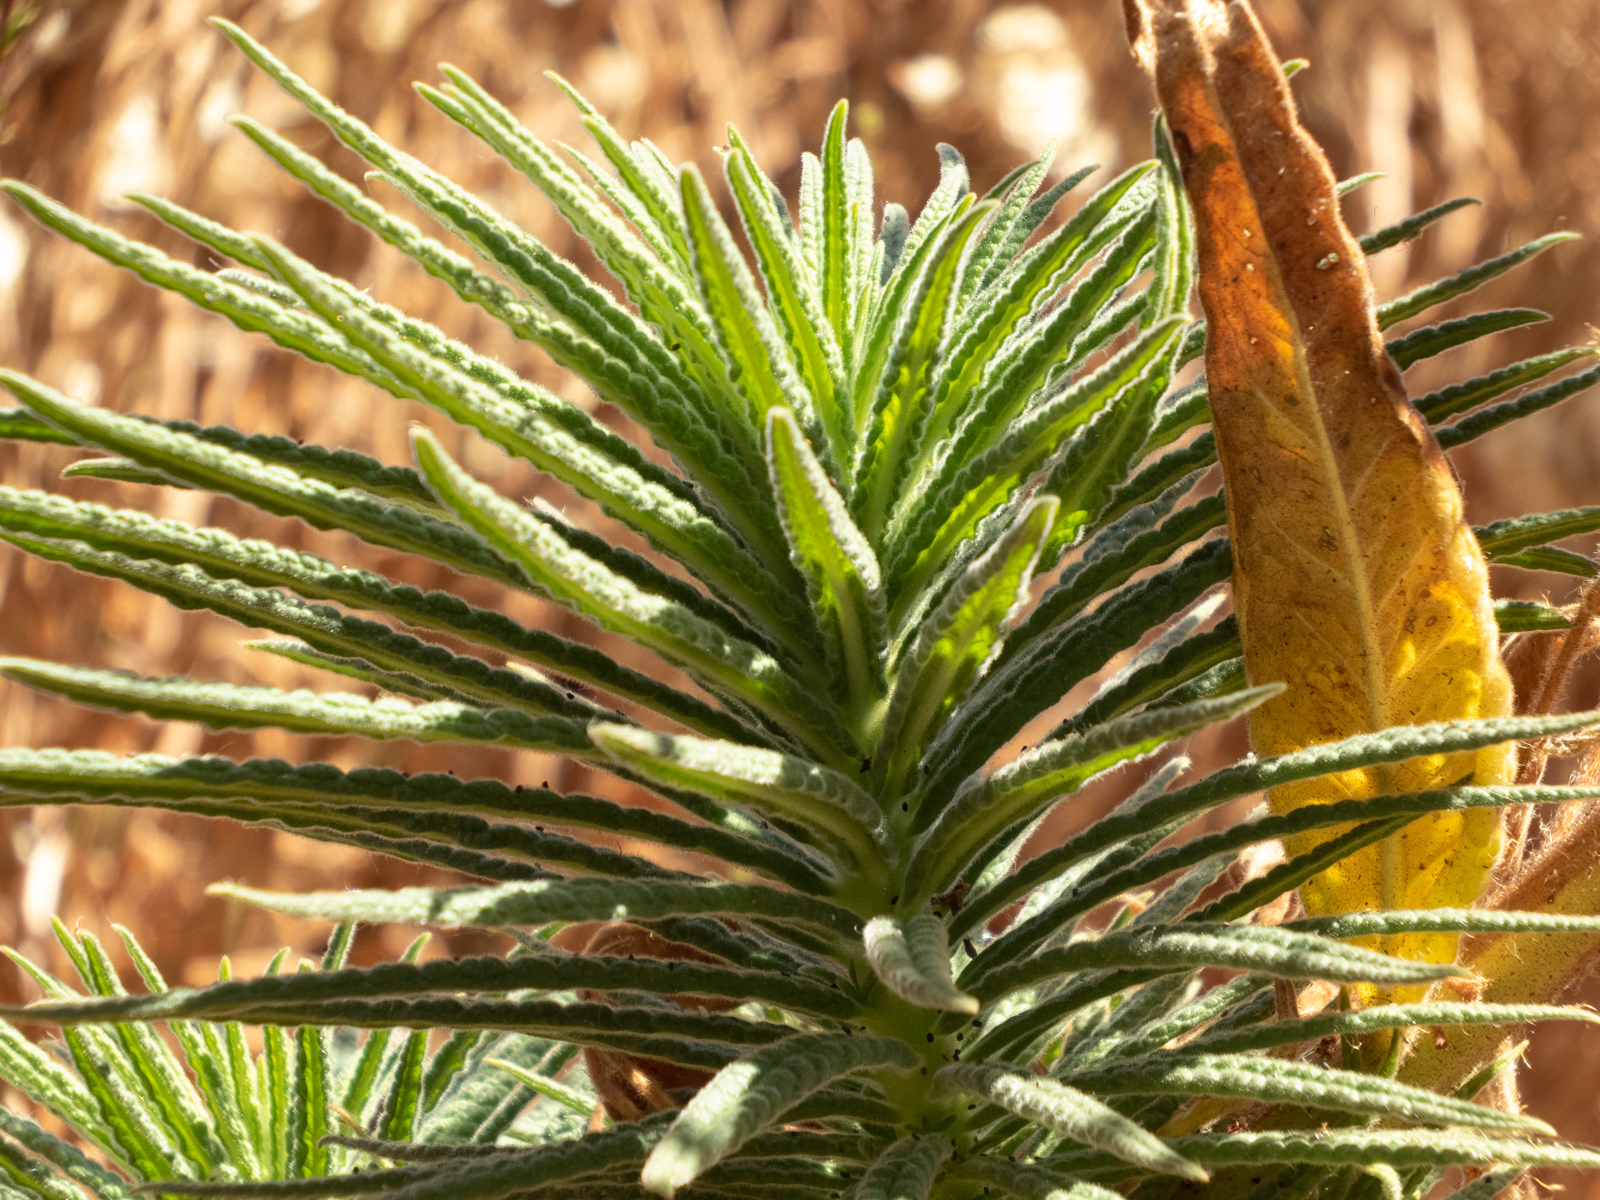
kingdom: Plantae
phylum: Tracheophyta
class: Magnoliopsida
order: Boraginales
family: Namaceae
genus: Turricula
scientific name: Turricula parryi
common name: Poodle-dog-bush
